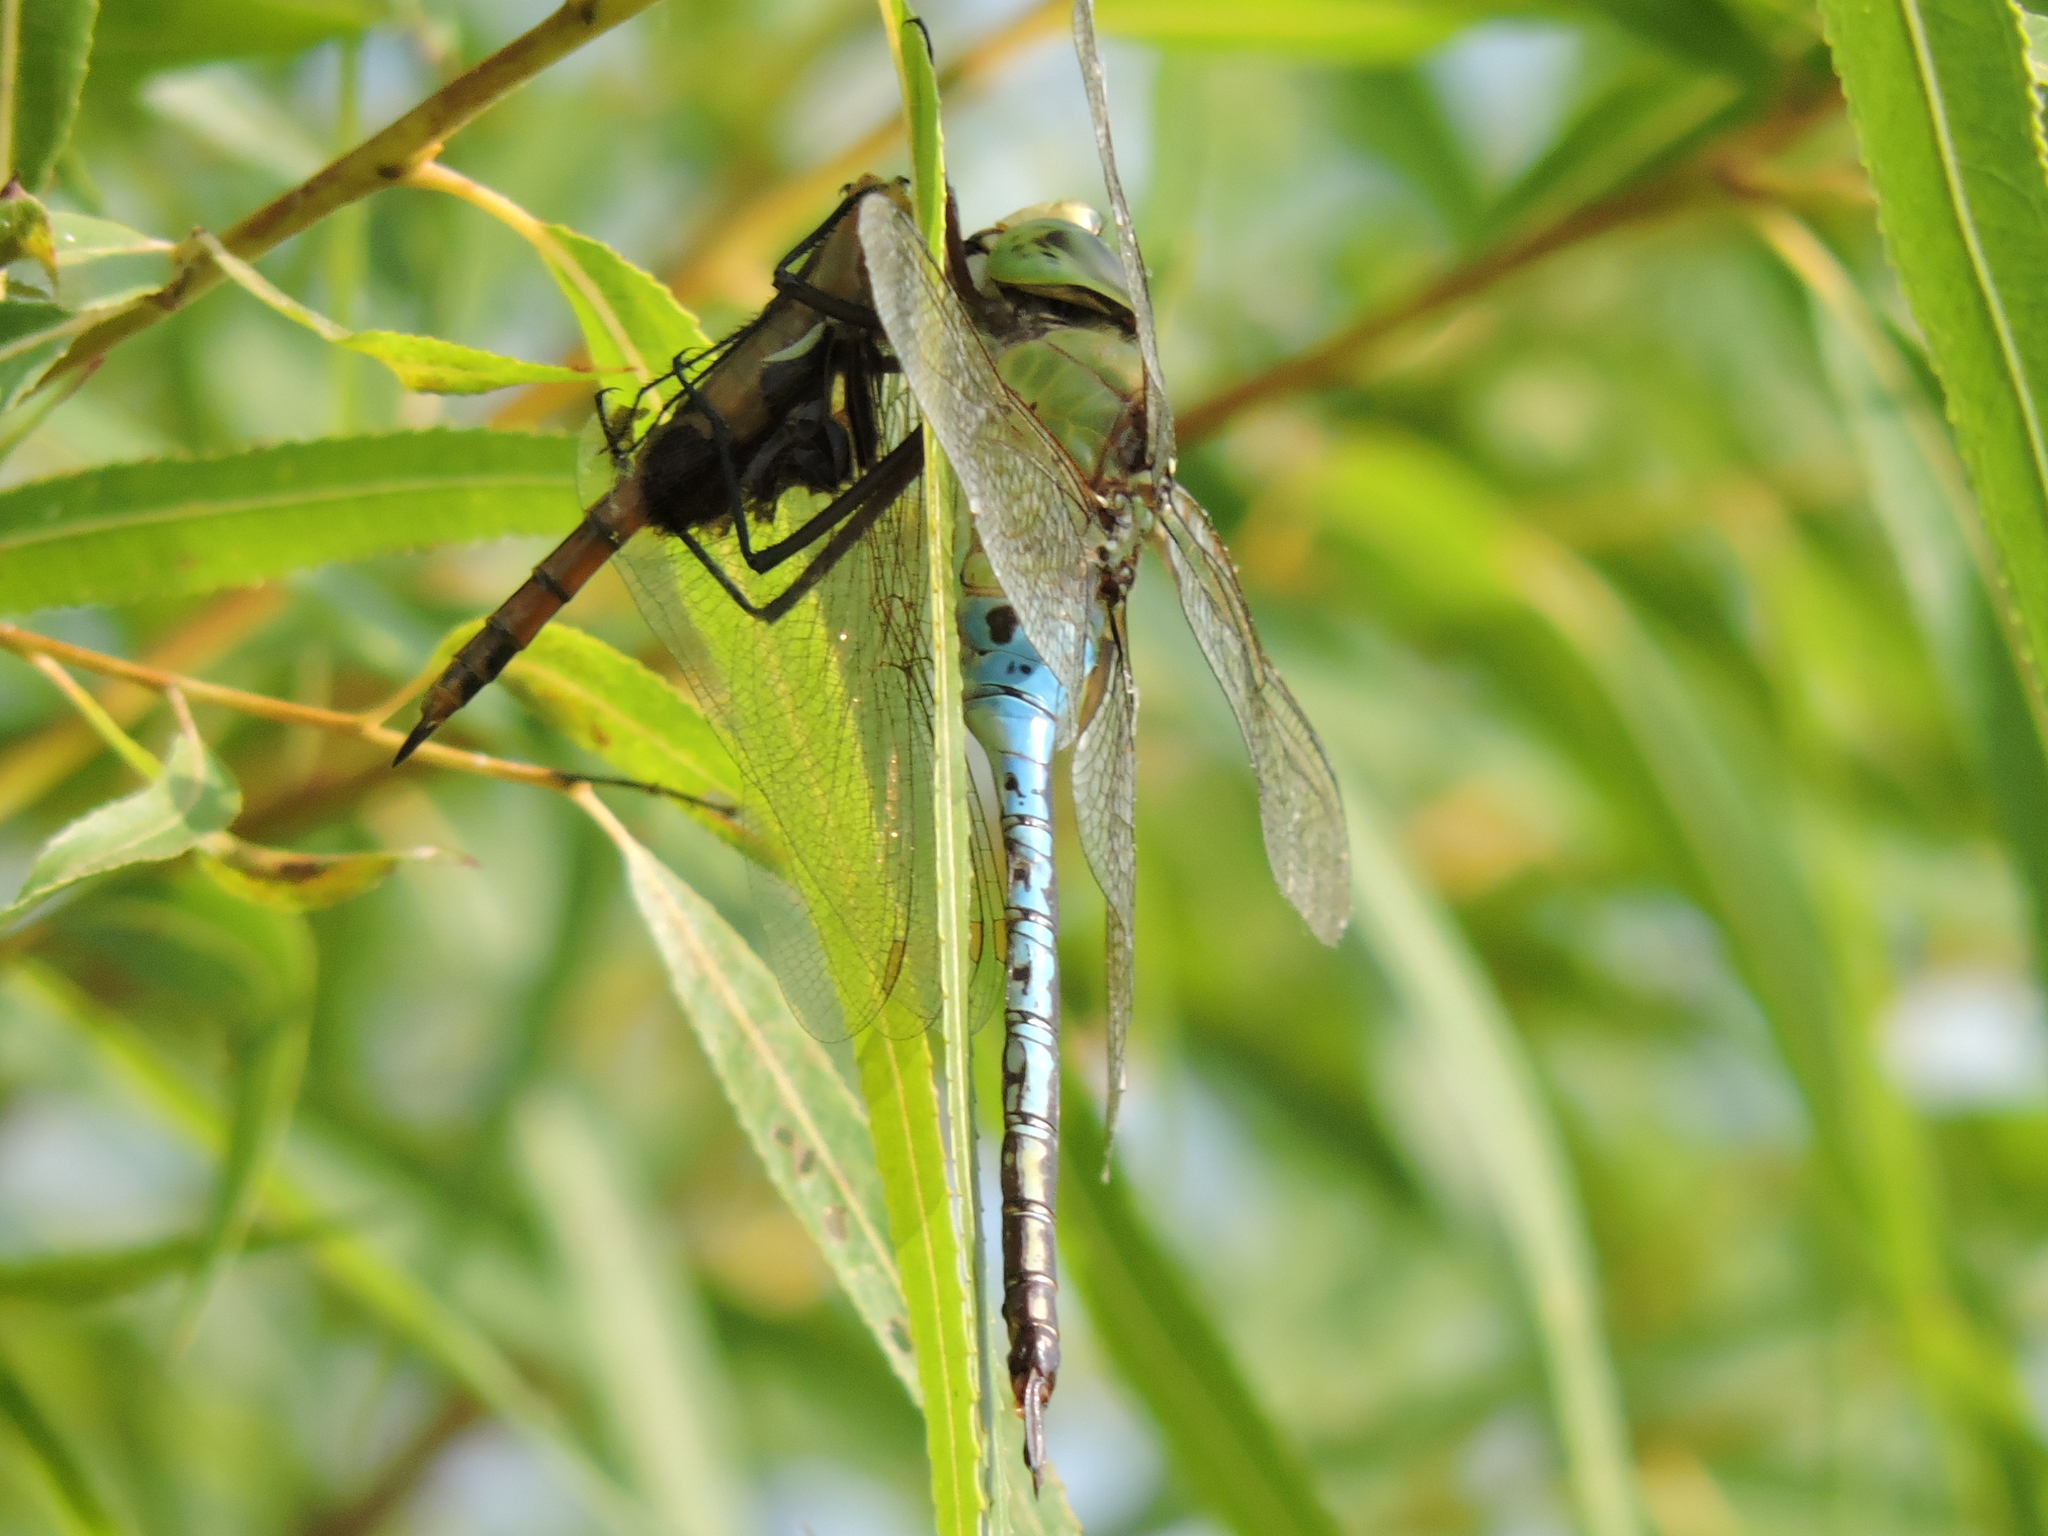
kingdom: Animalia
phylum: Arthropoda
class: Insecta
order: Odonata
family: Aeshnidae
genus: Anax
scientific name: Anax junius
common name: Common green darner
